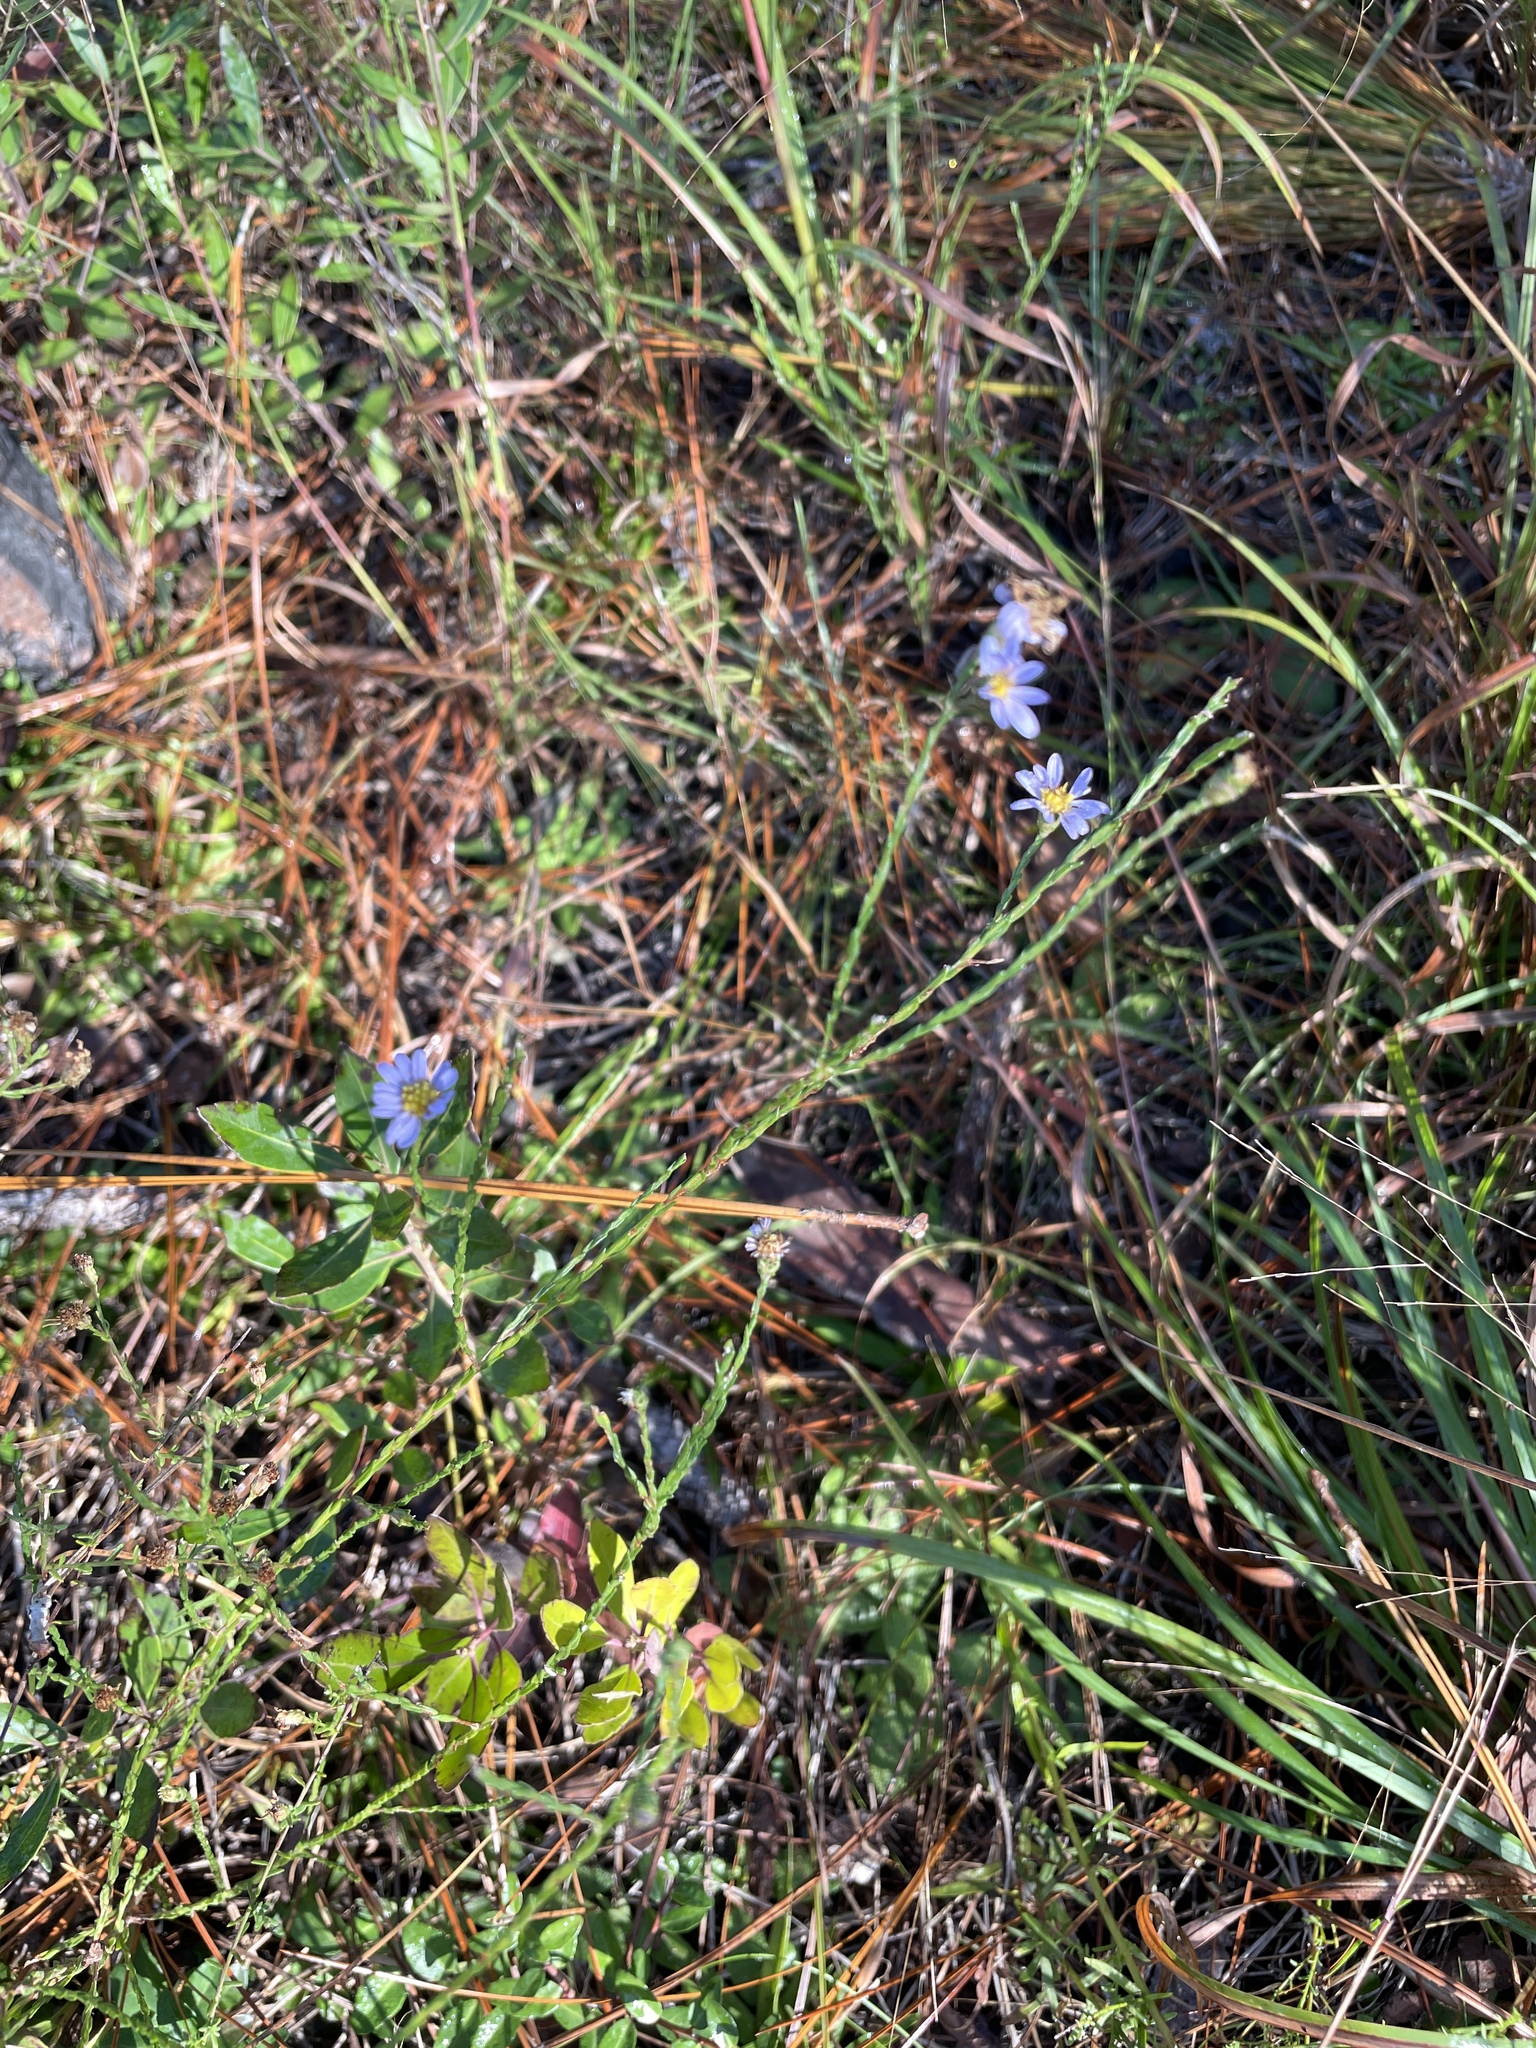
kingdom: Plantae
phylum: Tracheophyta
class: Magnoliopsida
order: Asterales
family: Asteraceae
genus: Symphyotrichum
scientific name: Symphyotrichum adnatum
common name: Scale-leaf aster
